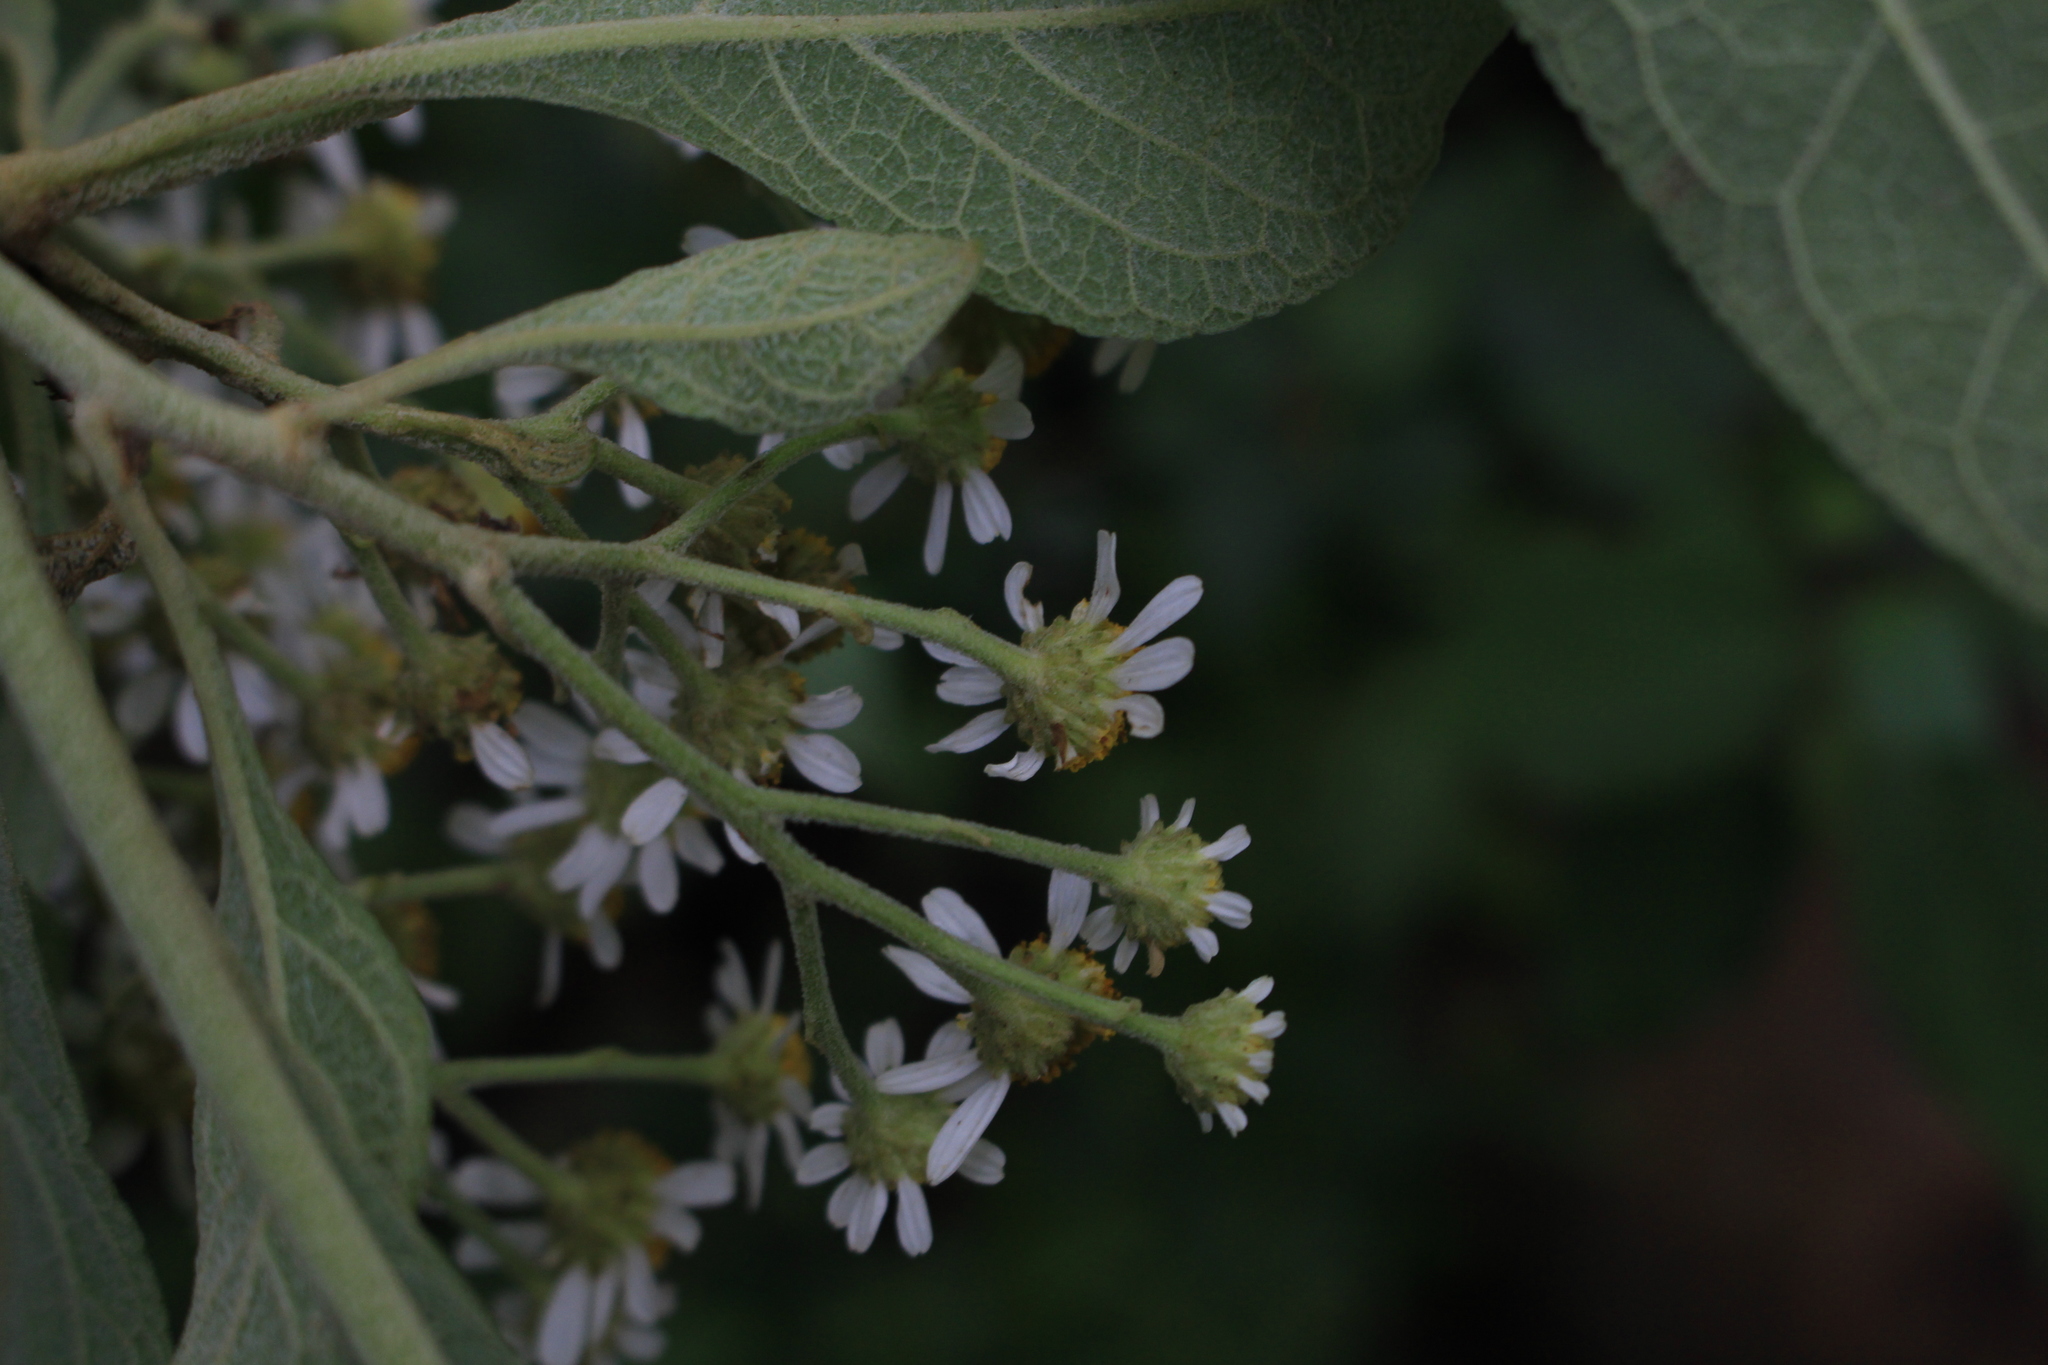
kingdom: Plantae
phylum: Tracheophyta
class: Magnoliopsida
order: Asterales
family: Asteraceae
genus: Podachaenium
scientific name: Podachaenium eminens
